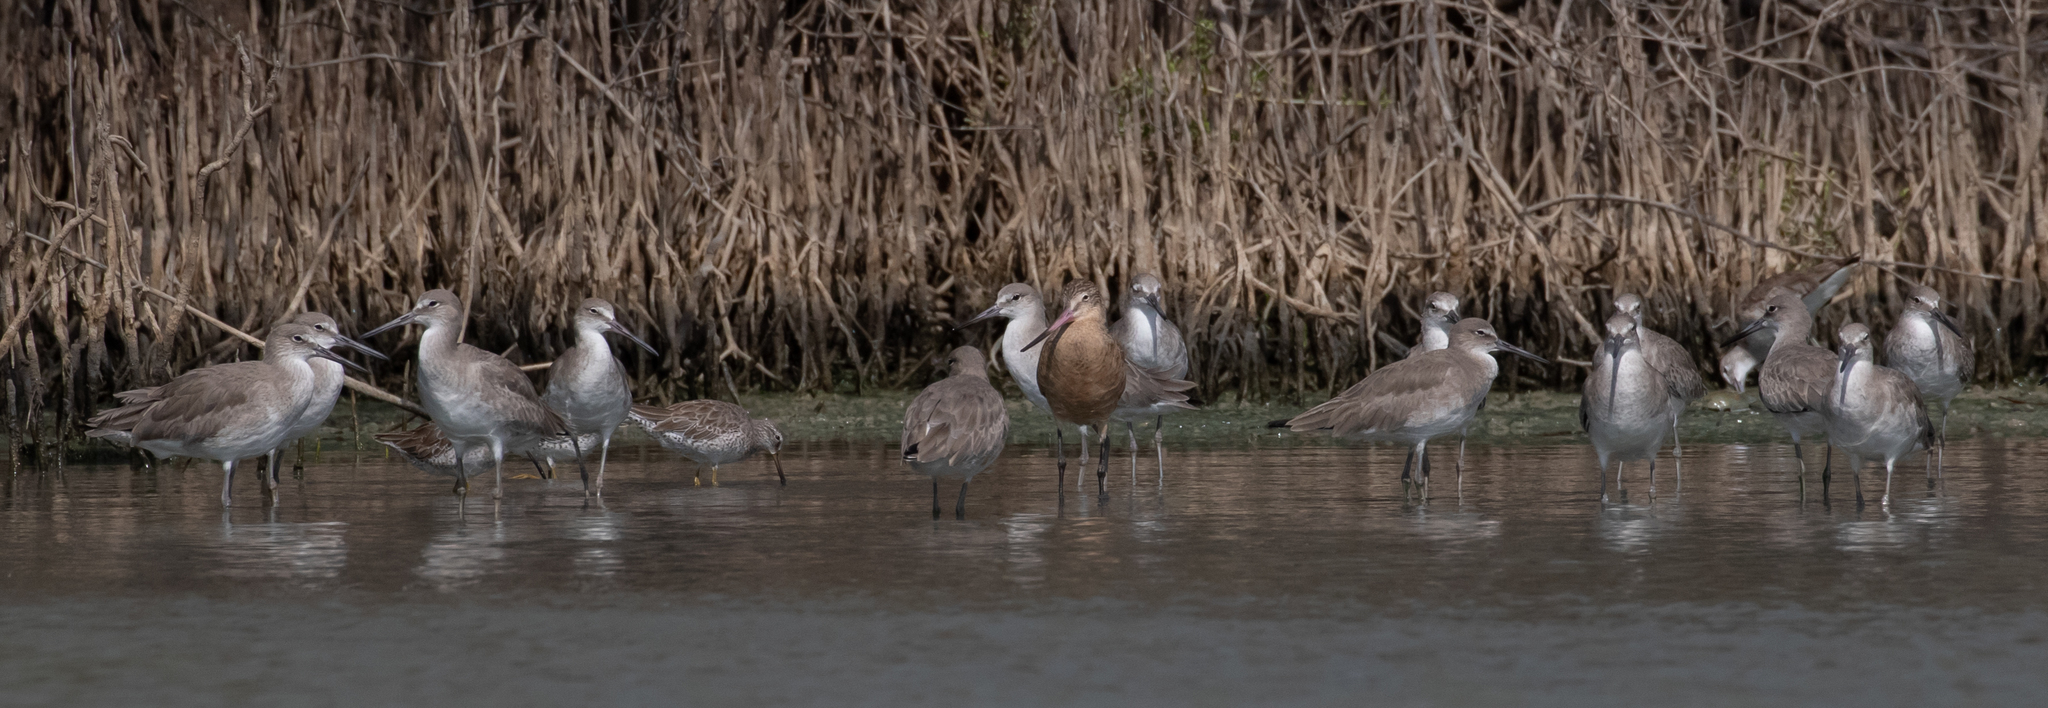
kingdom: Animalia
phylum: Chordata
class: Aves
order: Charadriiformes
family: Scolopacidae
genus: Limosa
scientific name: Limosa fedoa
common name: Marbled godwit
